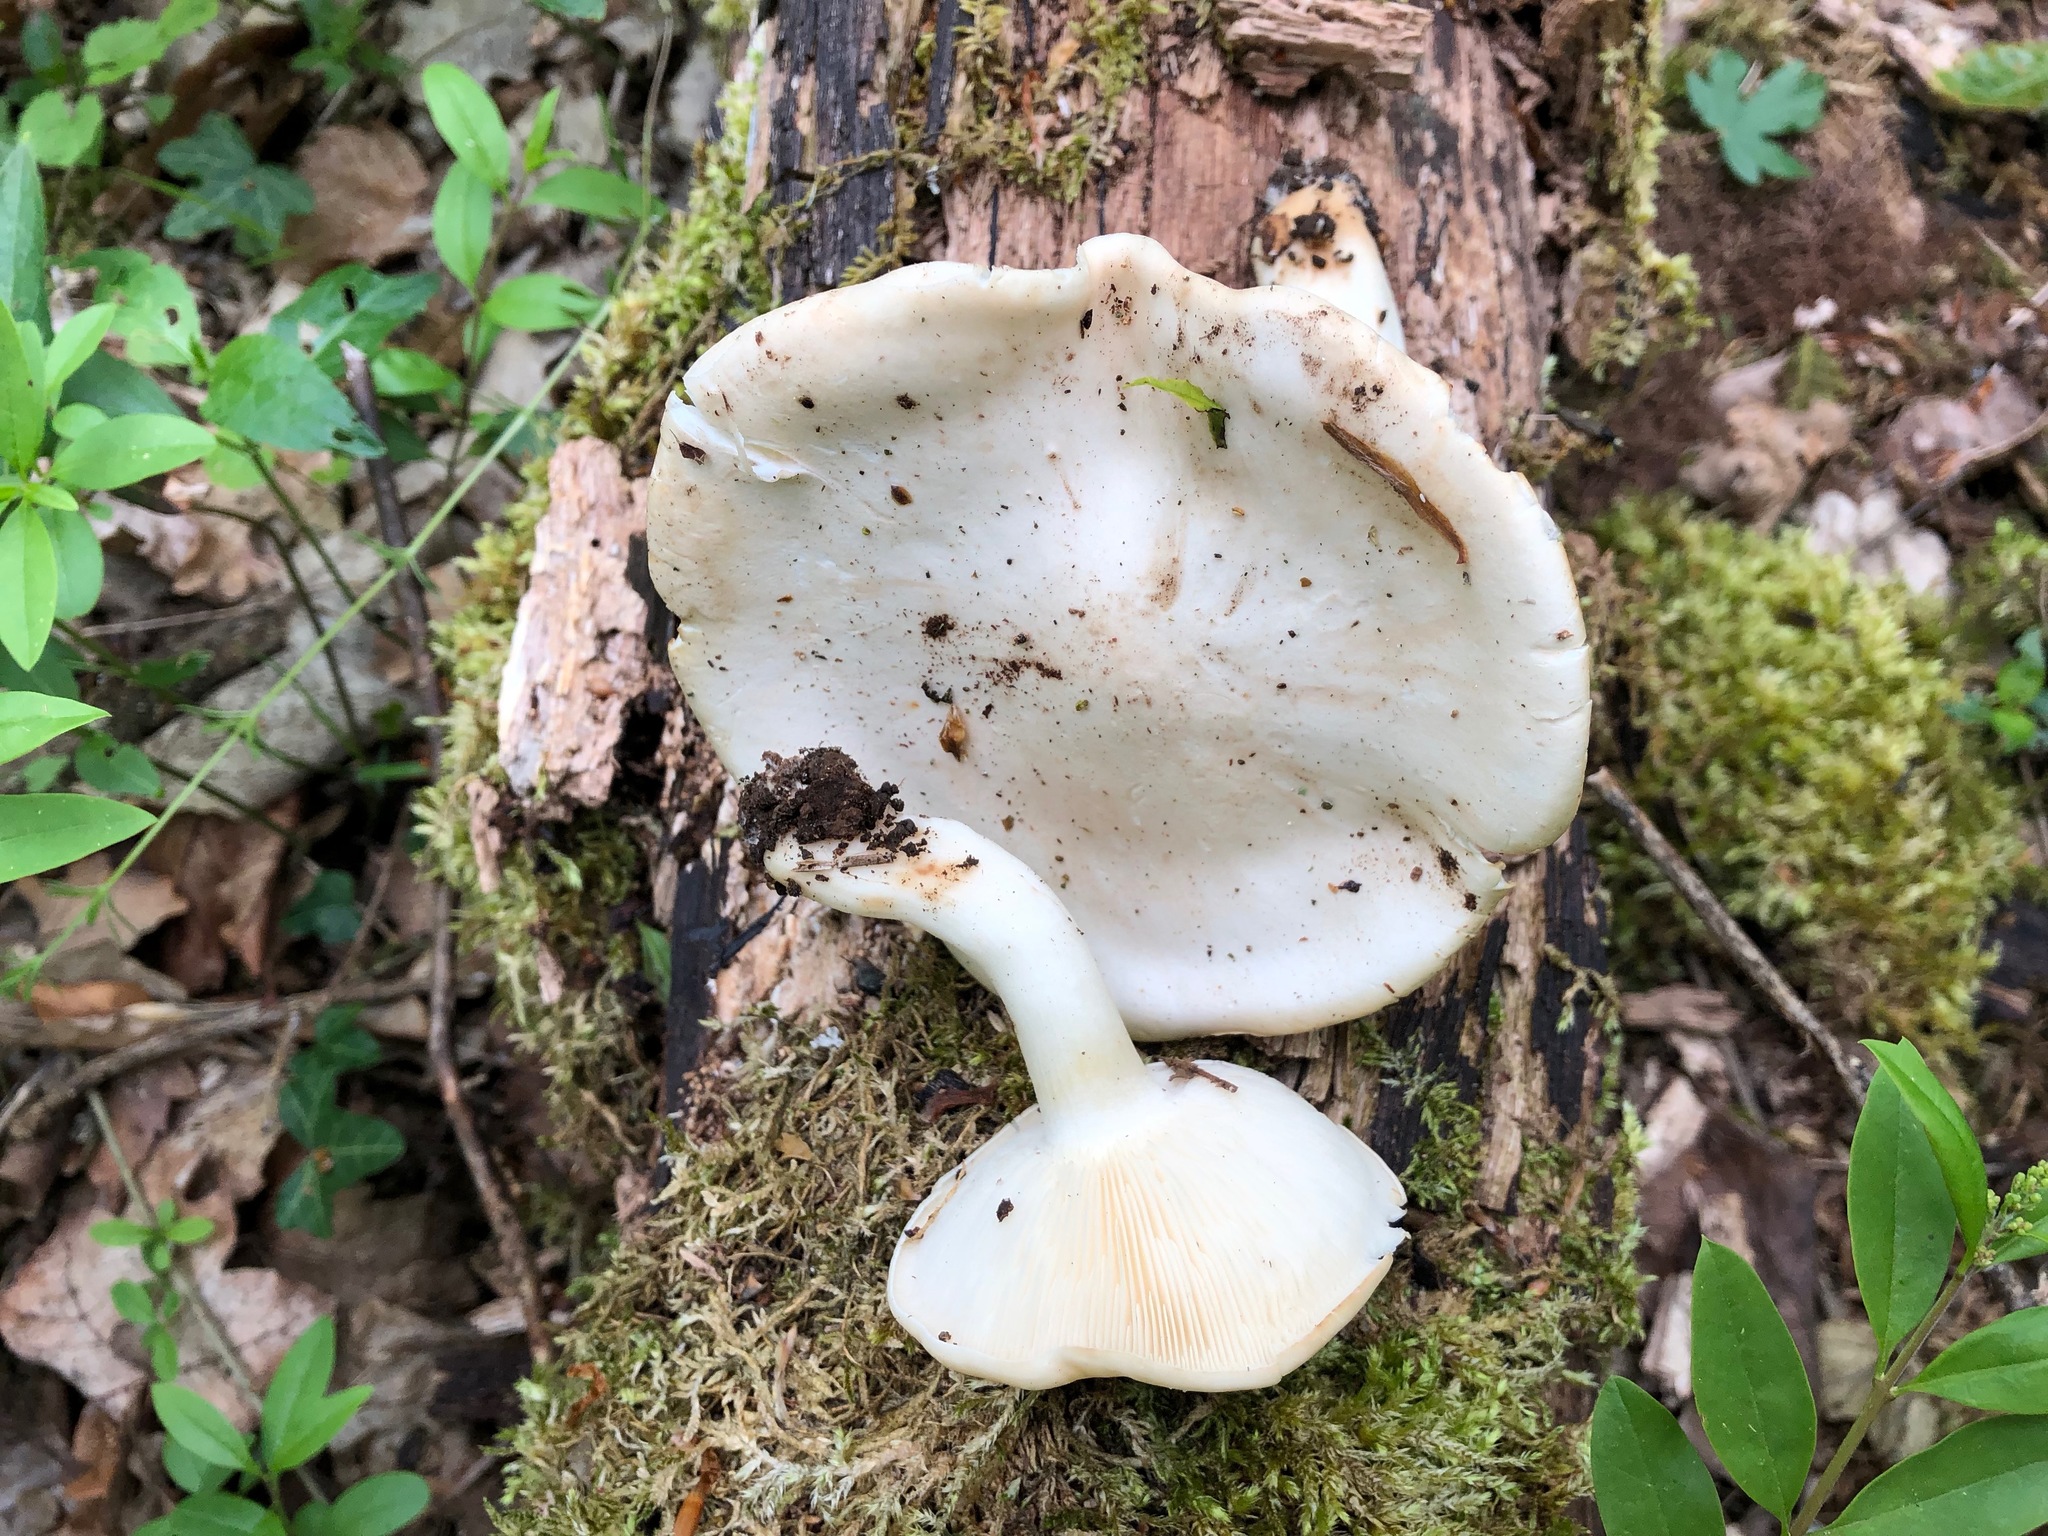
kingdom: Fungi
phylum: Basidiomycota
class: Agaricomycetes
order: Agaricales
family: Lyophyllaceae
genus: Calocybe
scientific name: Calocybe gambosa
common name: St. george's mushroom
